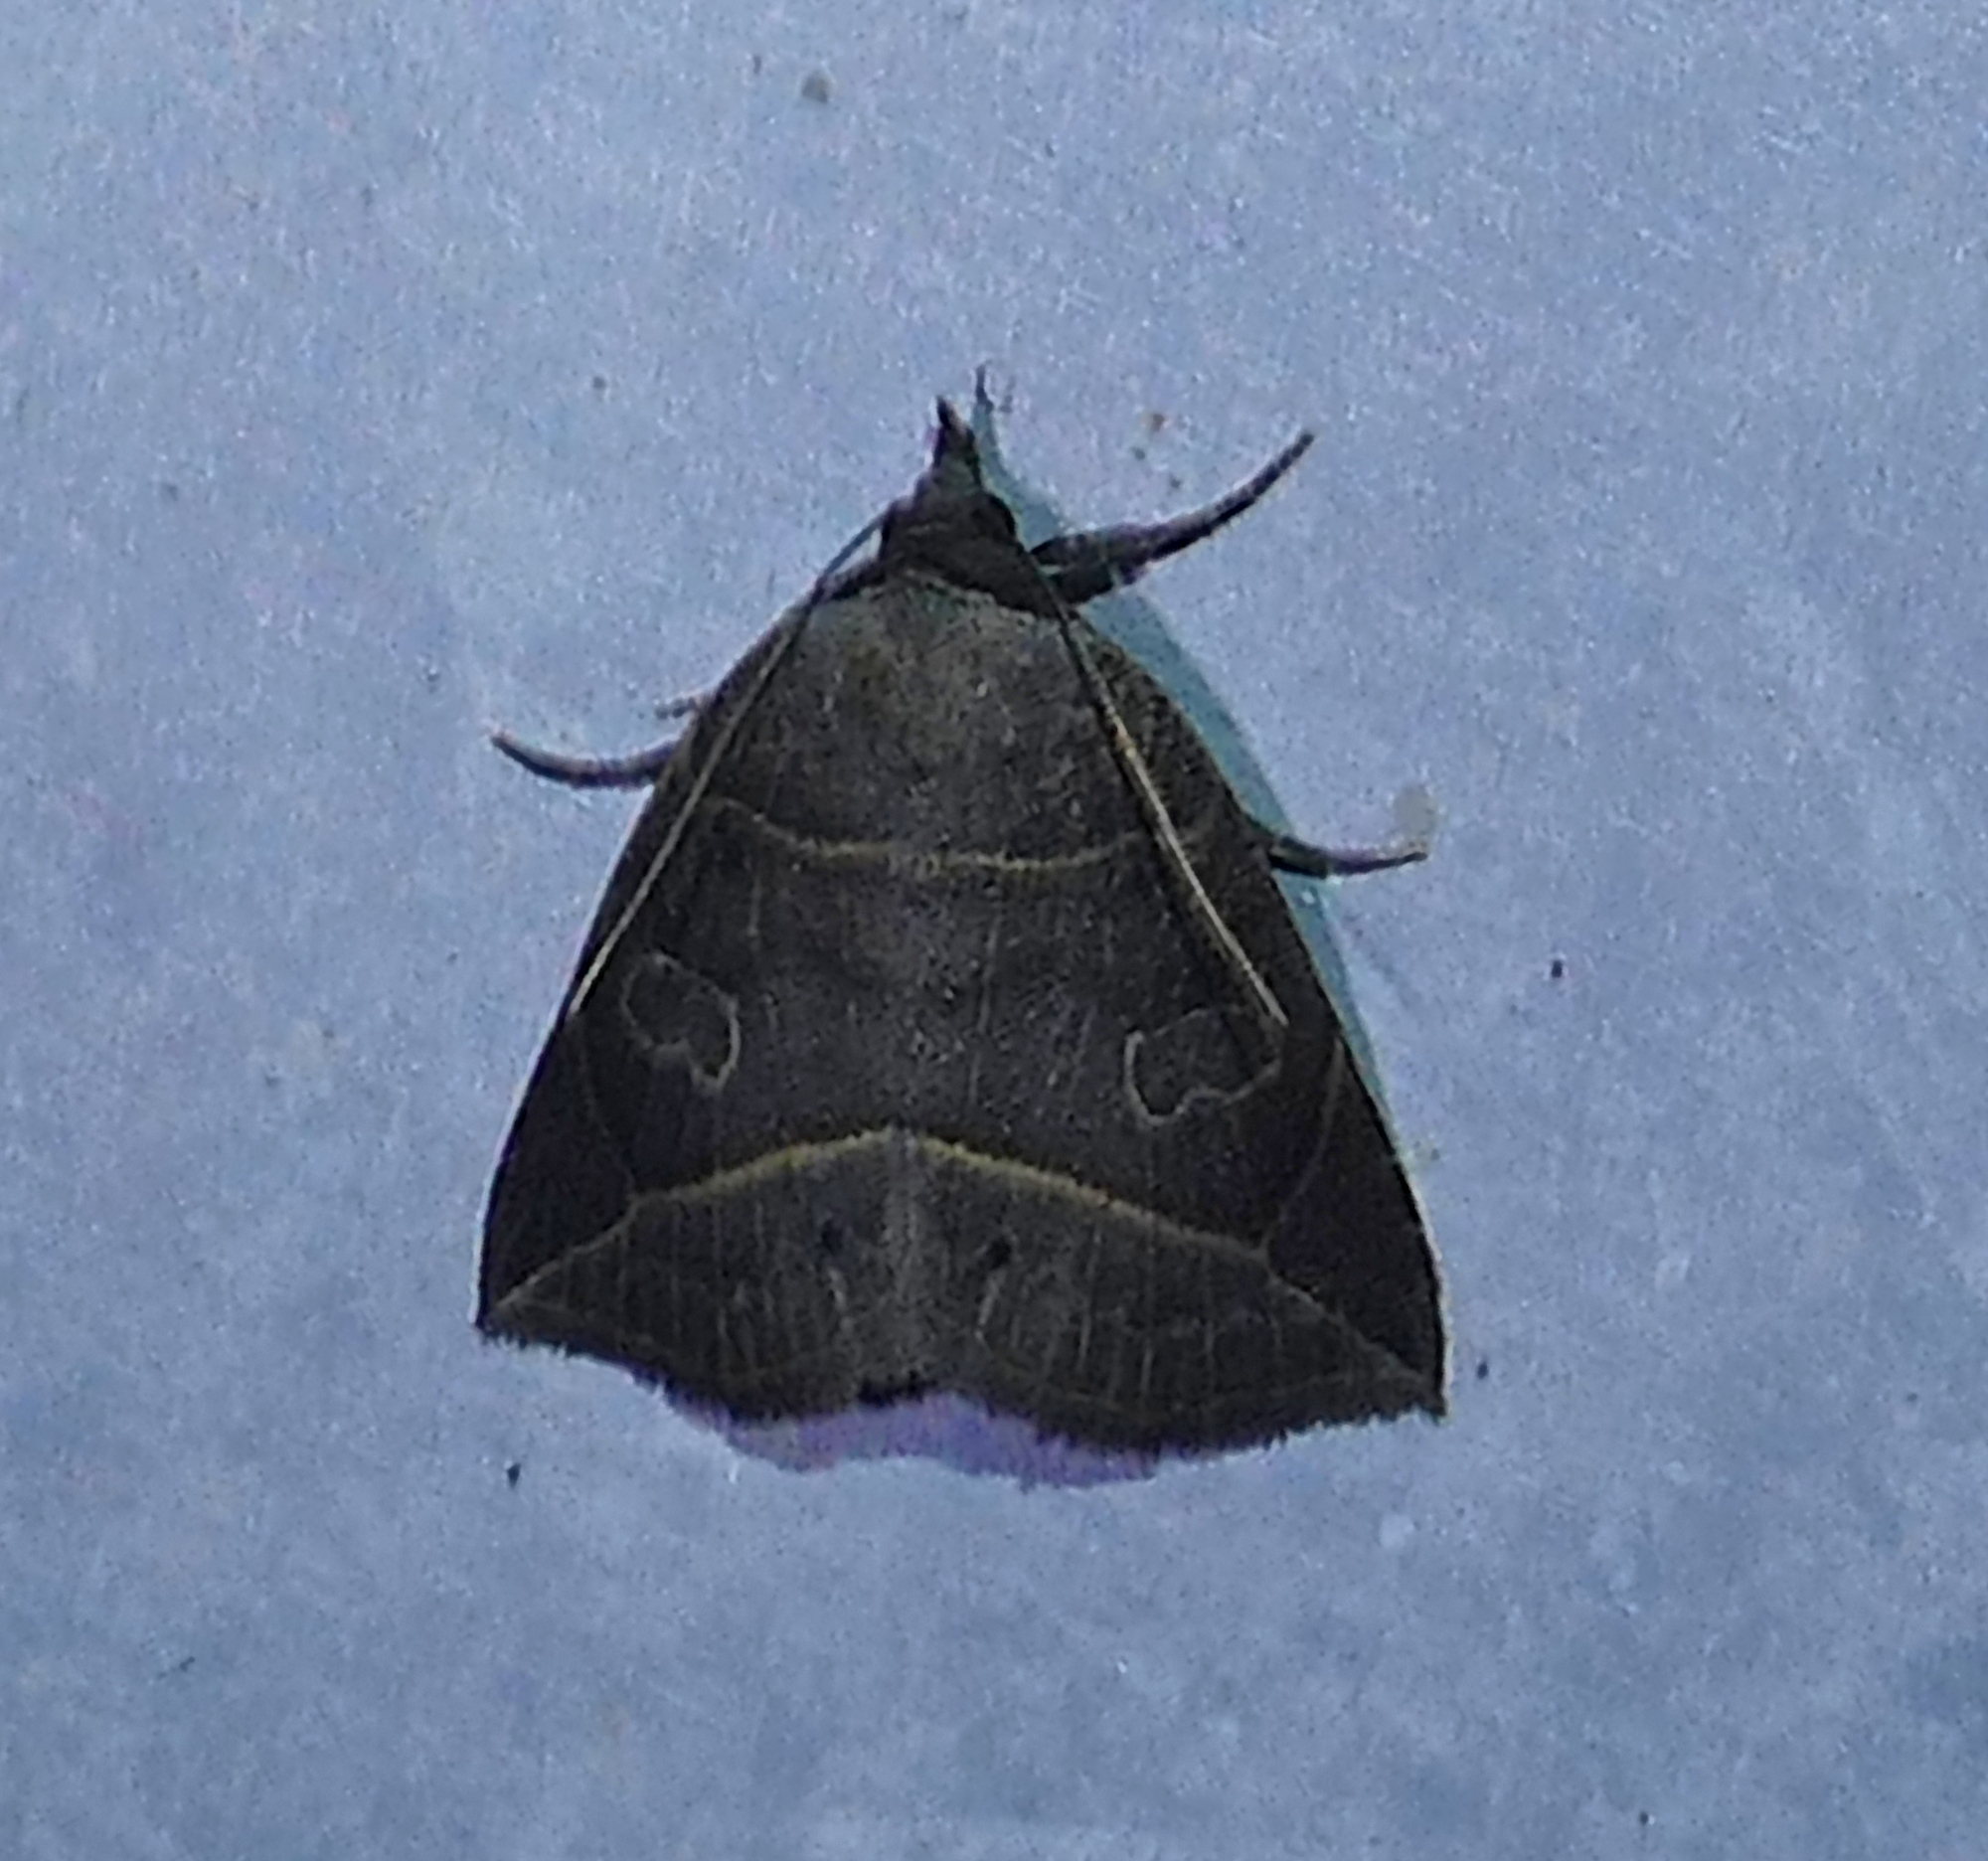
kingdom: Animalia
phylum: Arthropoda
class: Insecta
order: Lepidoptera
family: Erebidae
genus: Isogona
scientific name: Isogona tenuis
